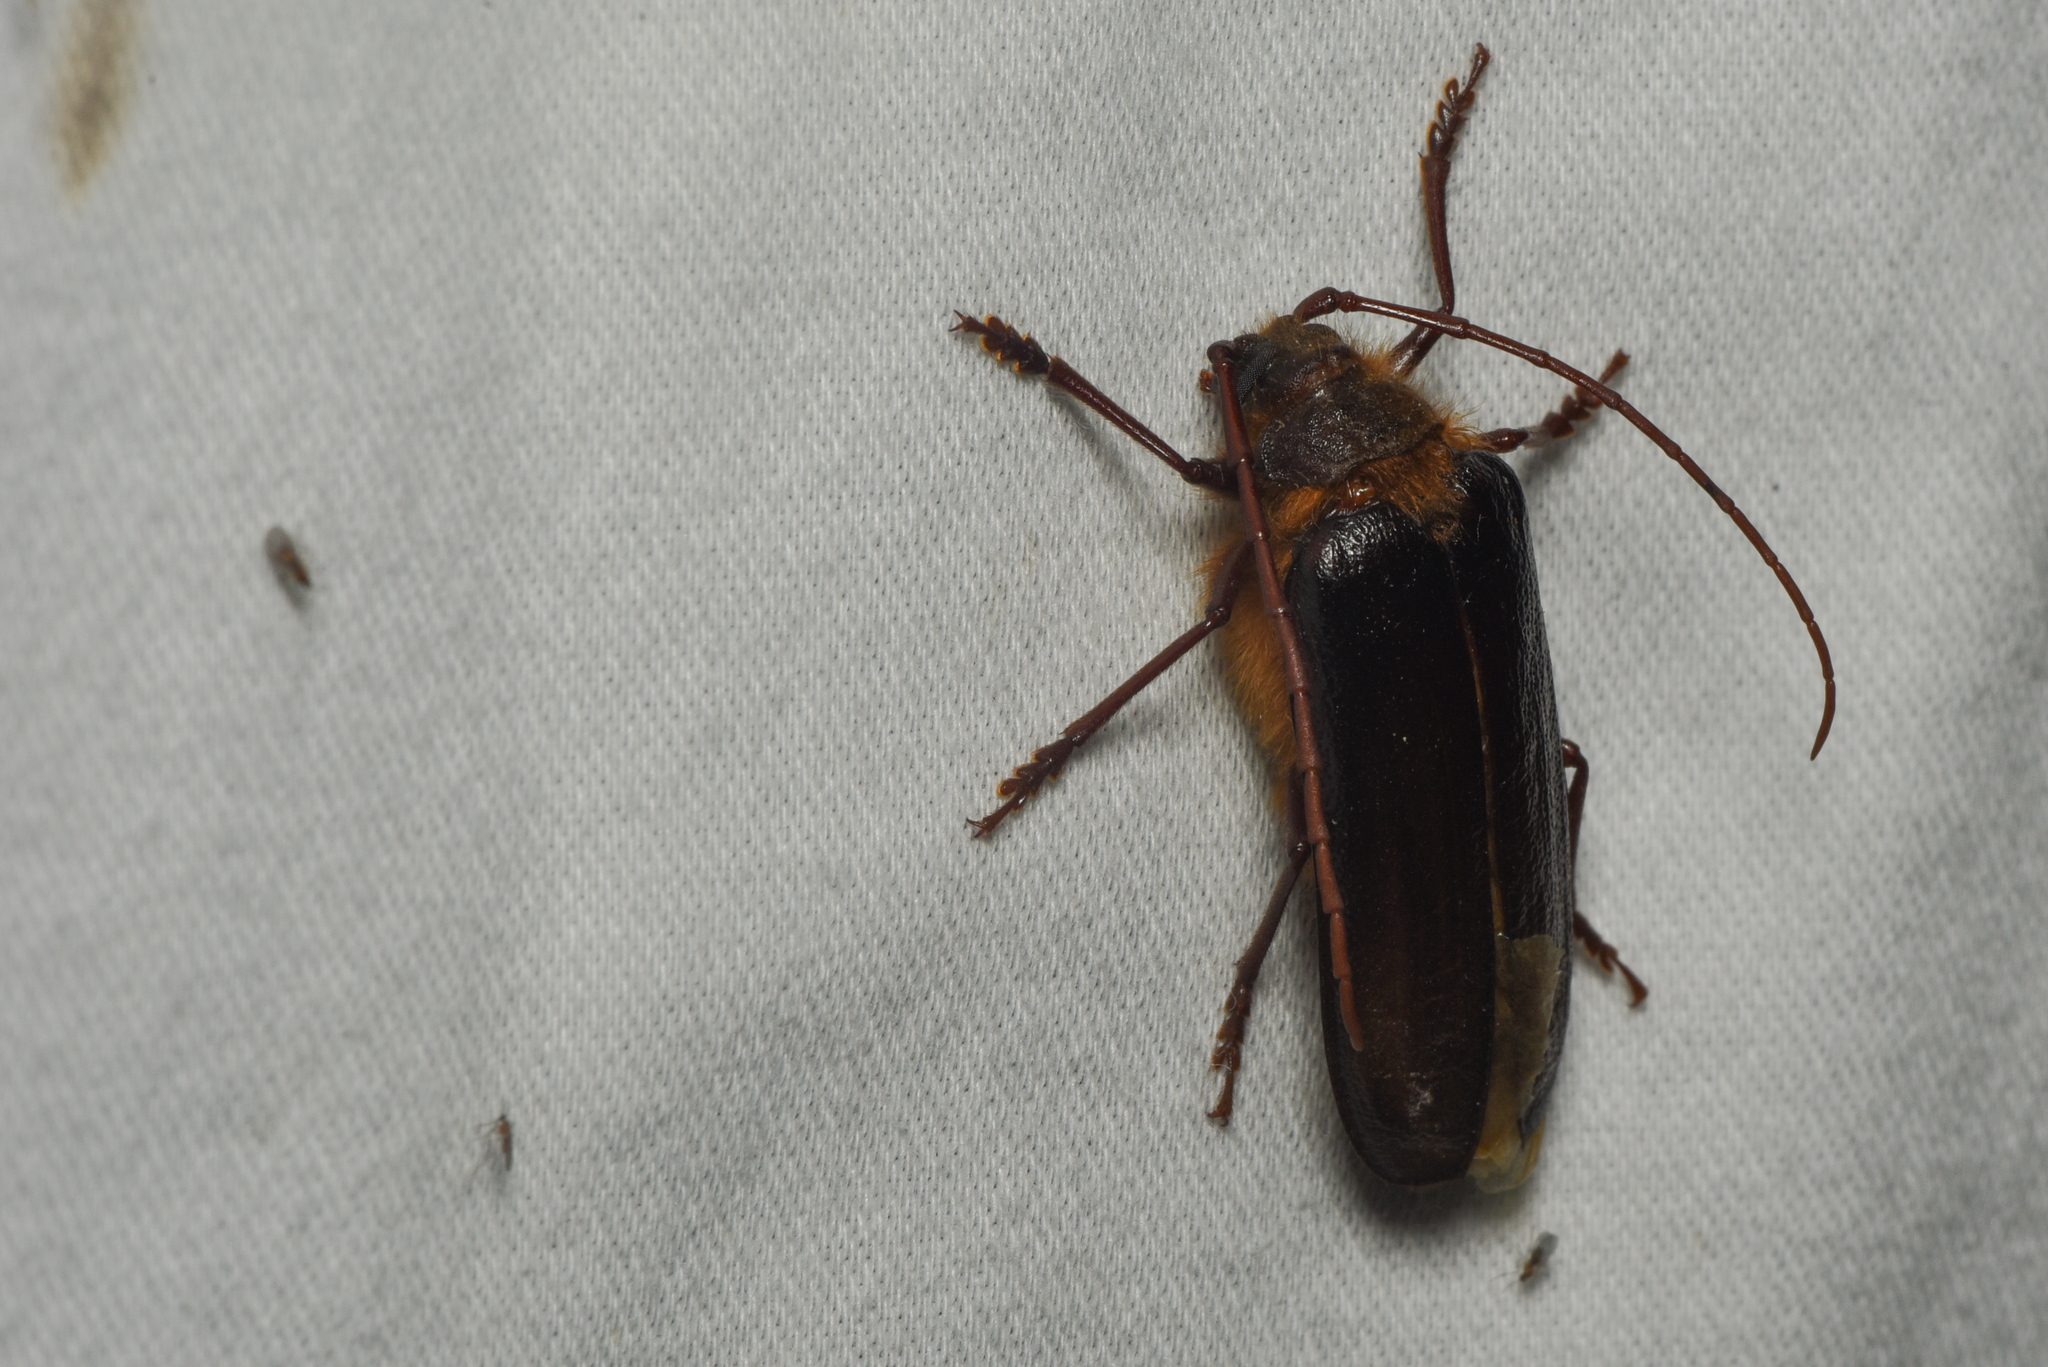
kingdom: Animalia
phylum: Arthropoda
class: Insecta
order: Coleoptera
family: Cerambycidae
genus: Tragosoma
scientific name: Tragosoma harrisii
